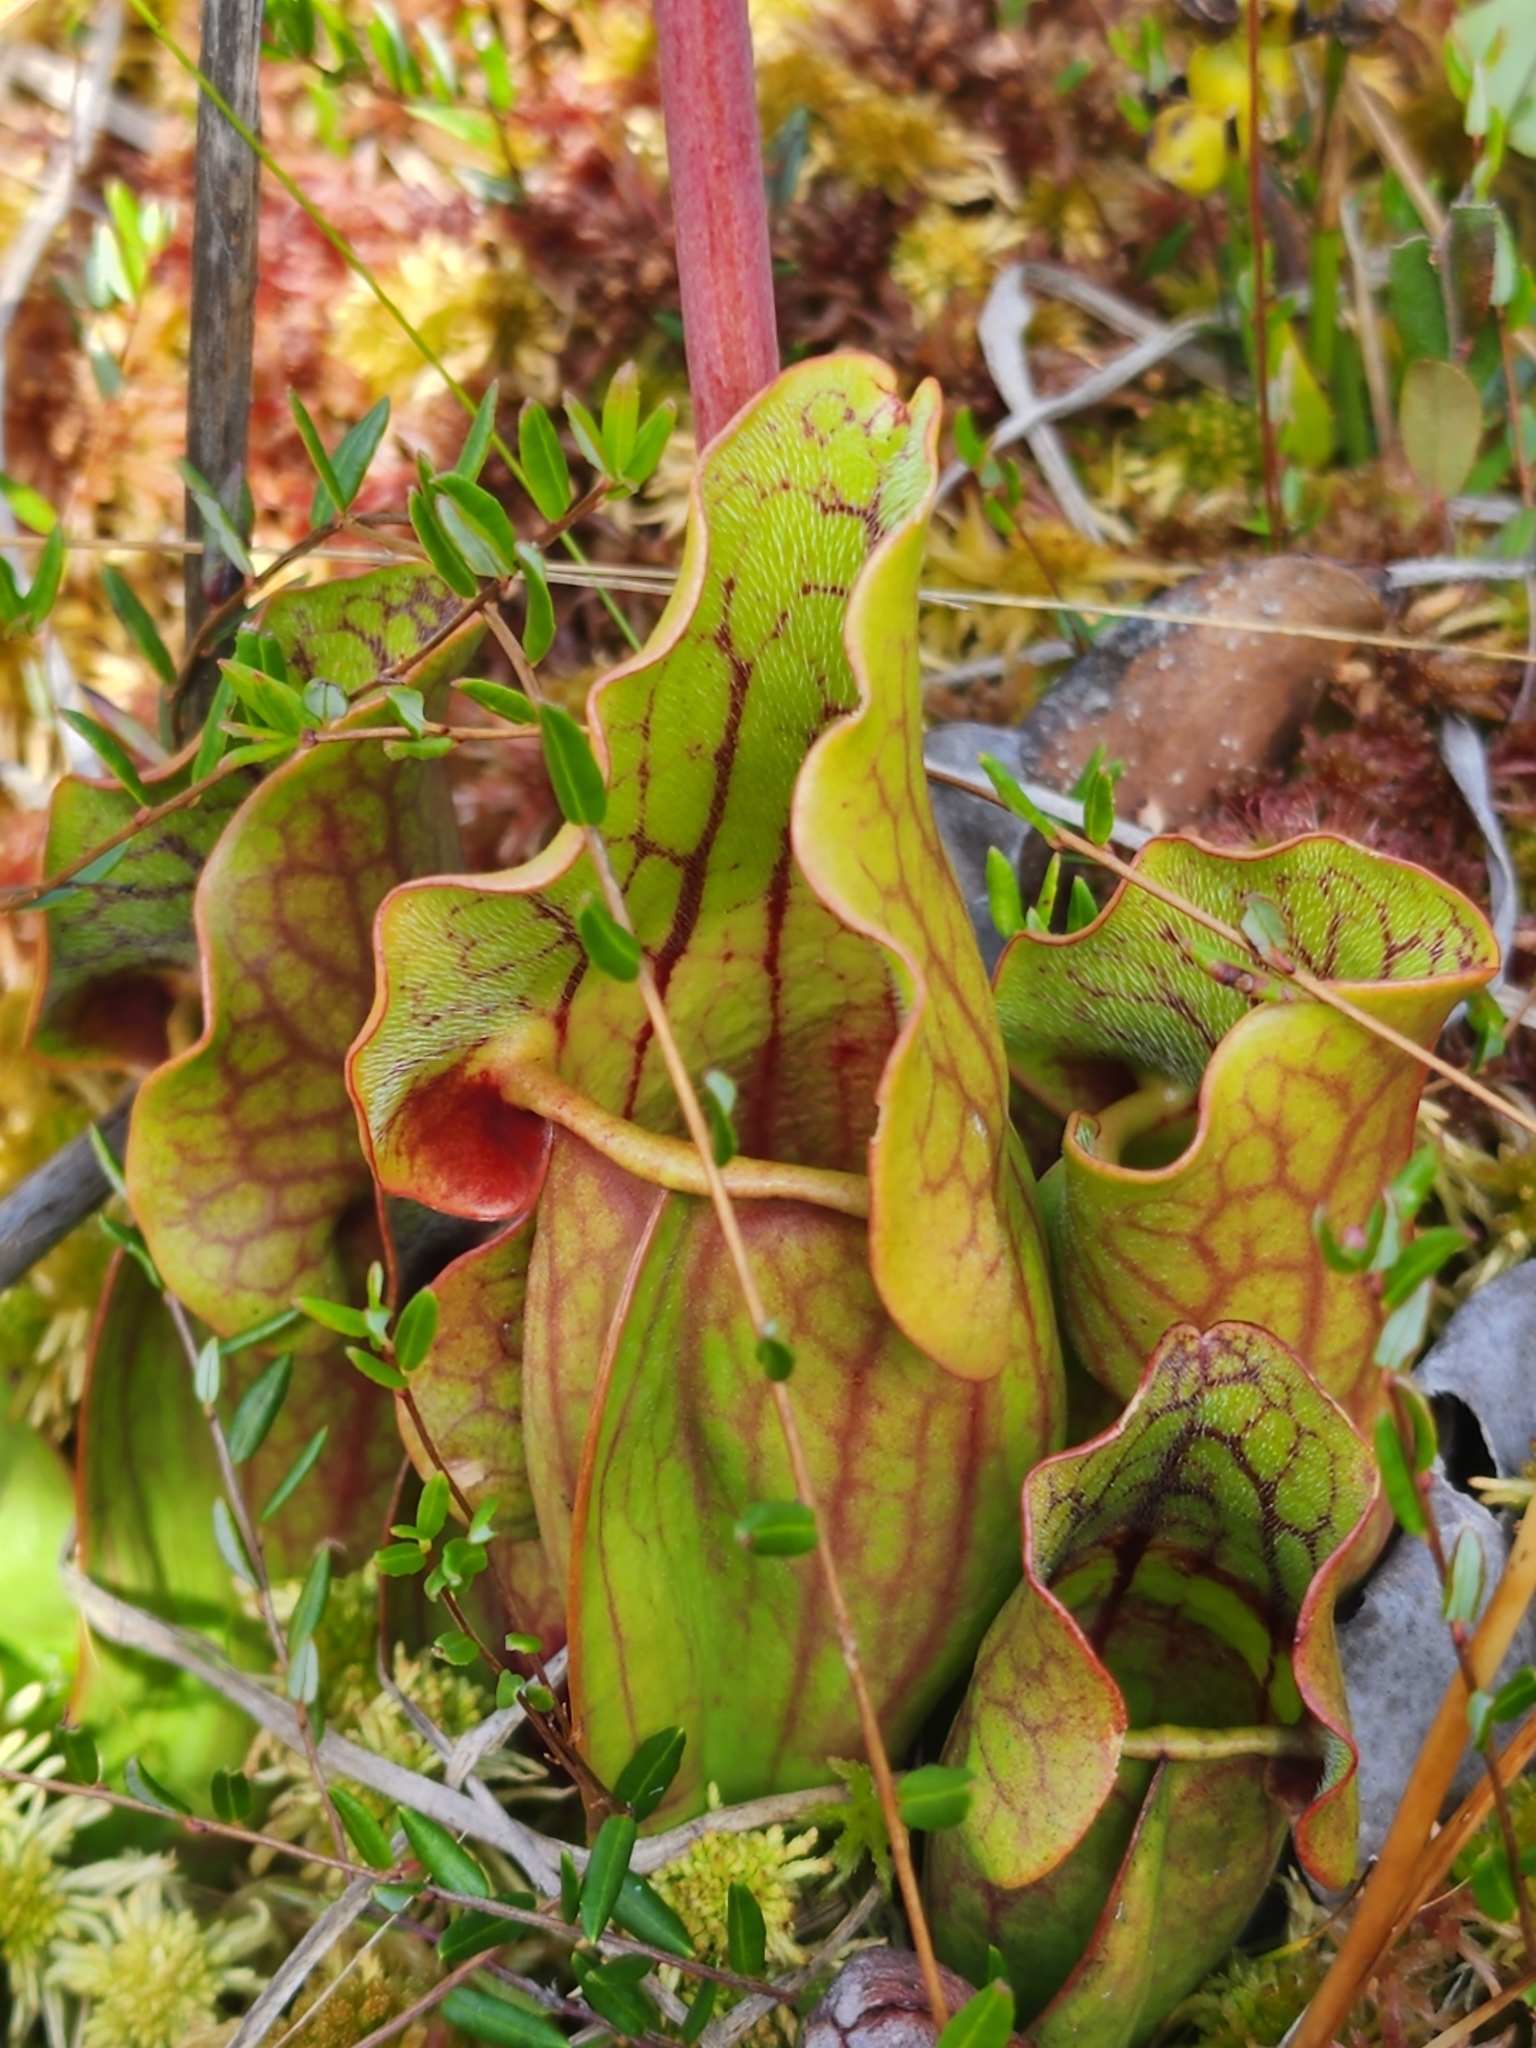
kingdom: Plantae
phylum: Tracheophyta
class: Magnoliopsida
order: Ericales
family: Sarraceniaceae
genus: Sarracenia
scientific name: Sarracenia purpurea
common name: Pitcherplant
